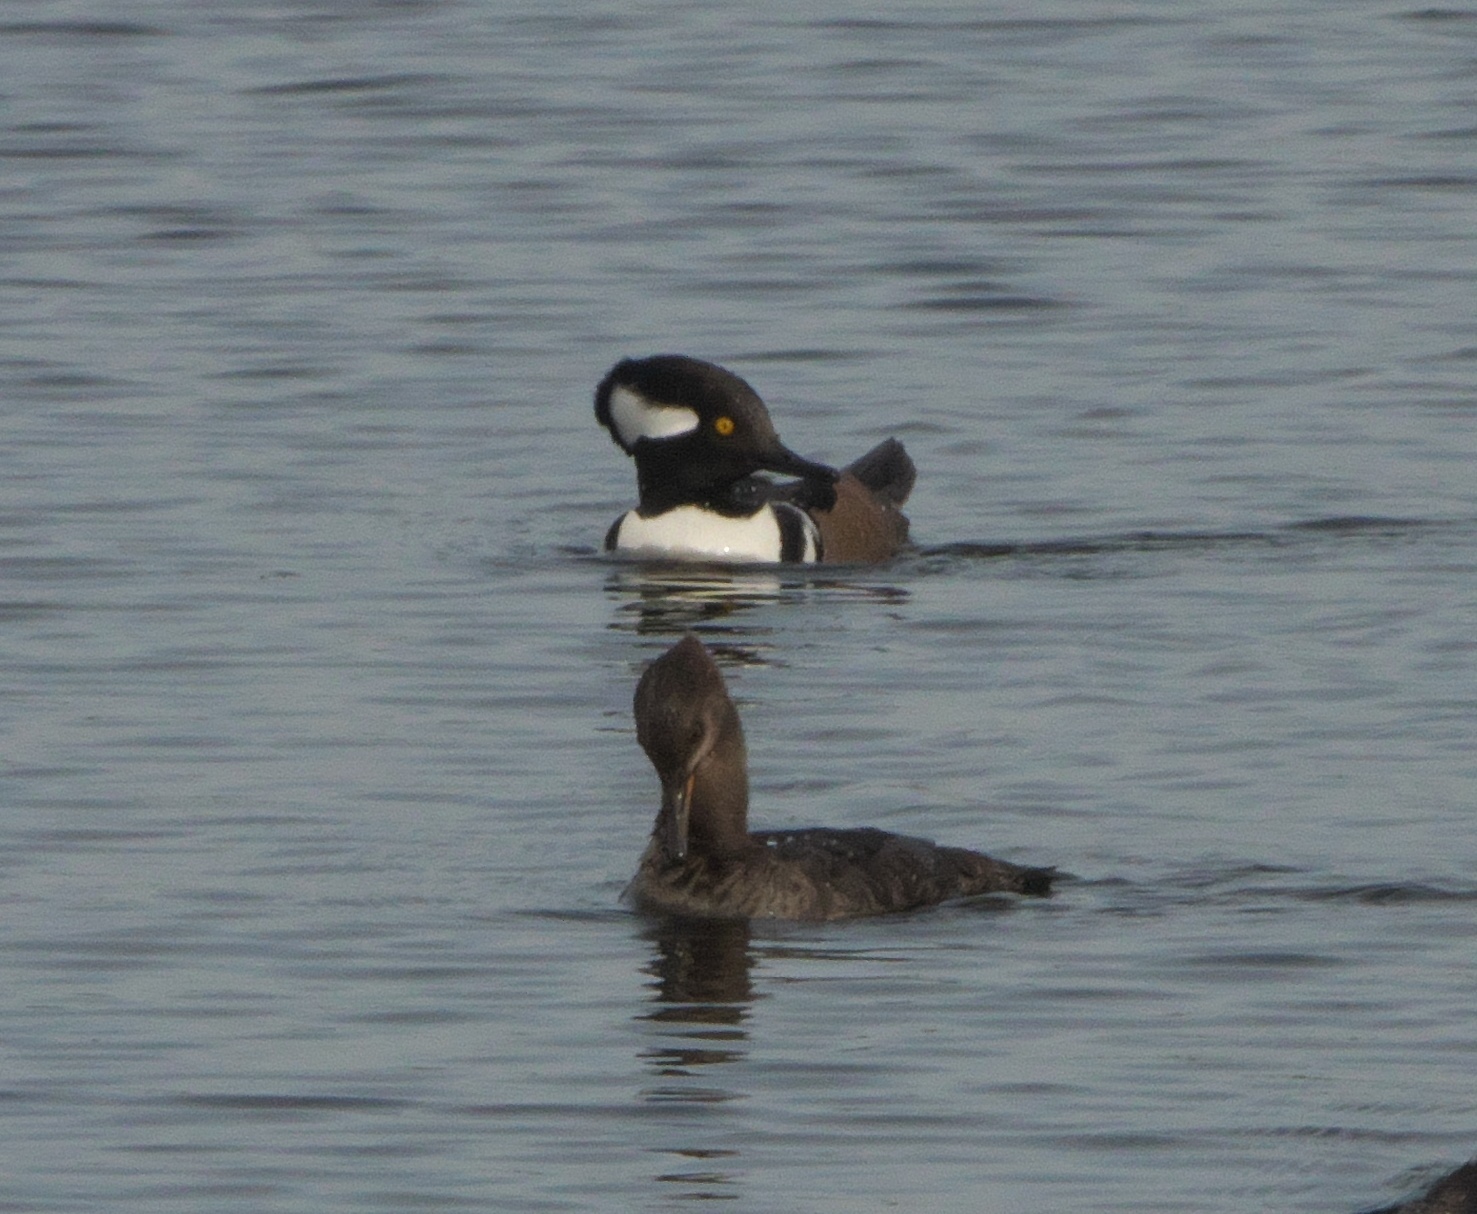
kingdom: Animalia
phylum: Chordata
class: Aves
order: Anseriformes
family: Anatidae
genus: Lophodytes
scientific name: Lophodytes cucullatus
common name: Hooded merganser
